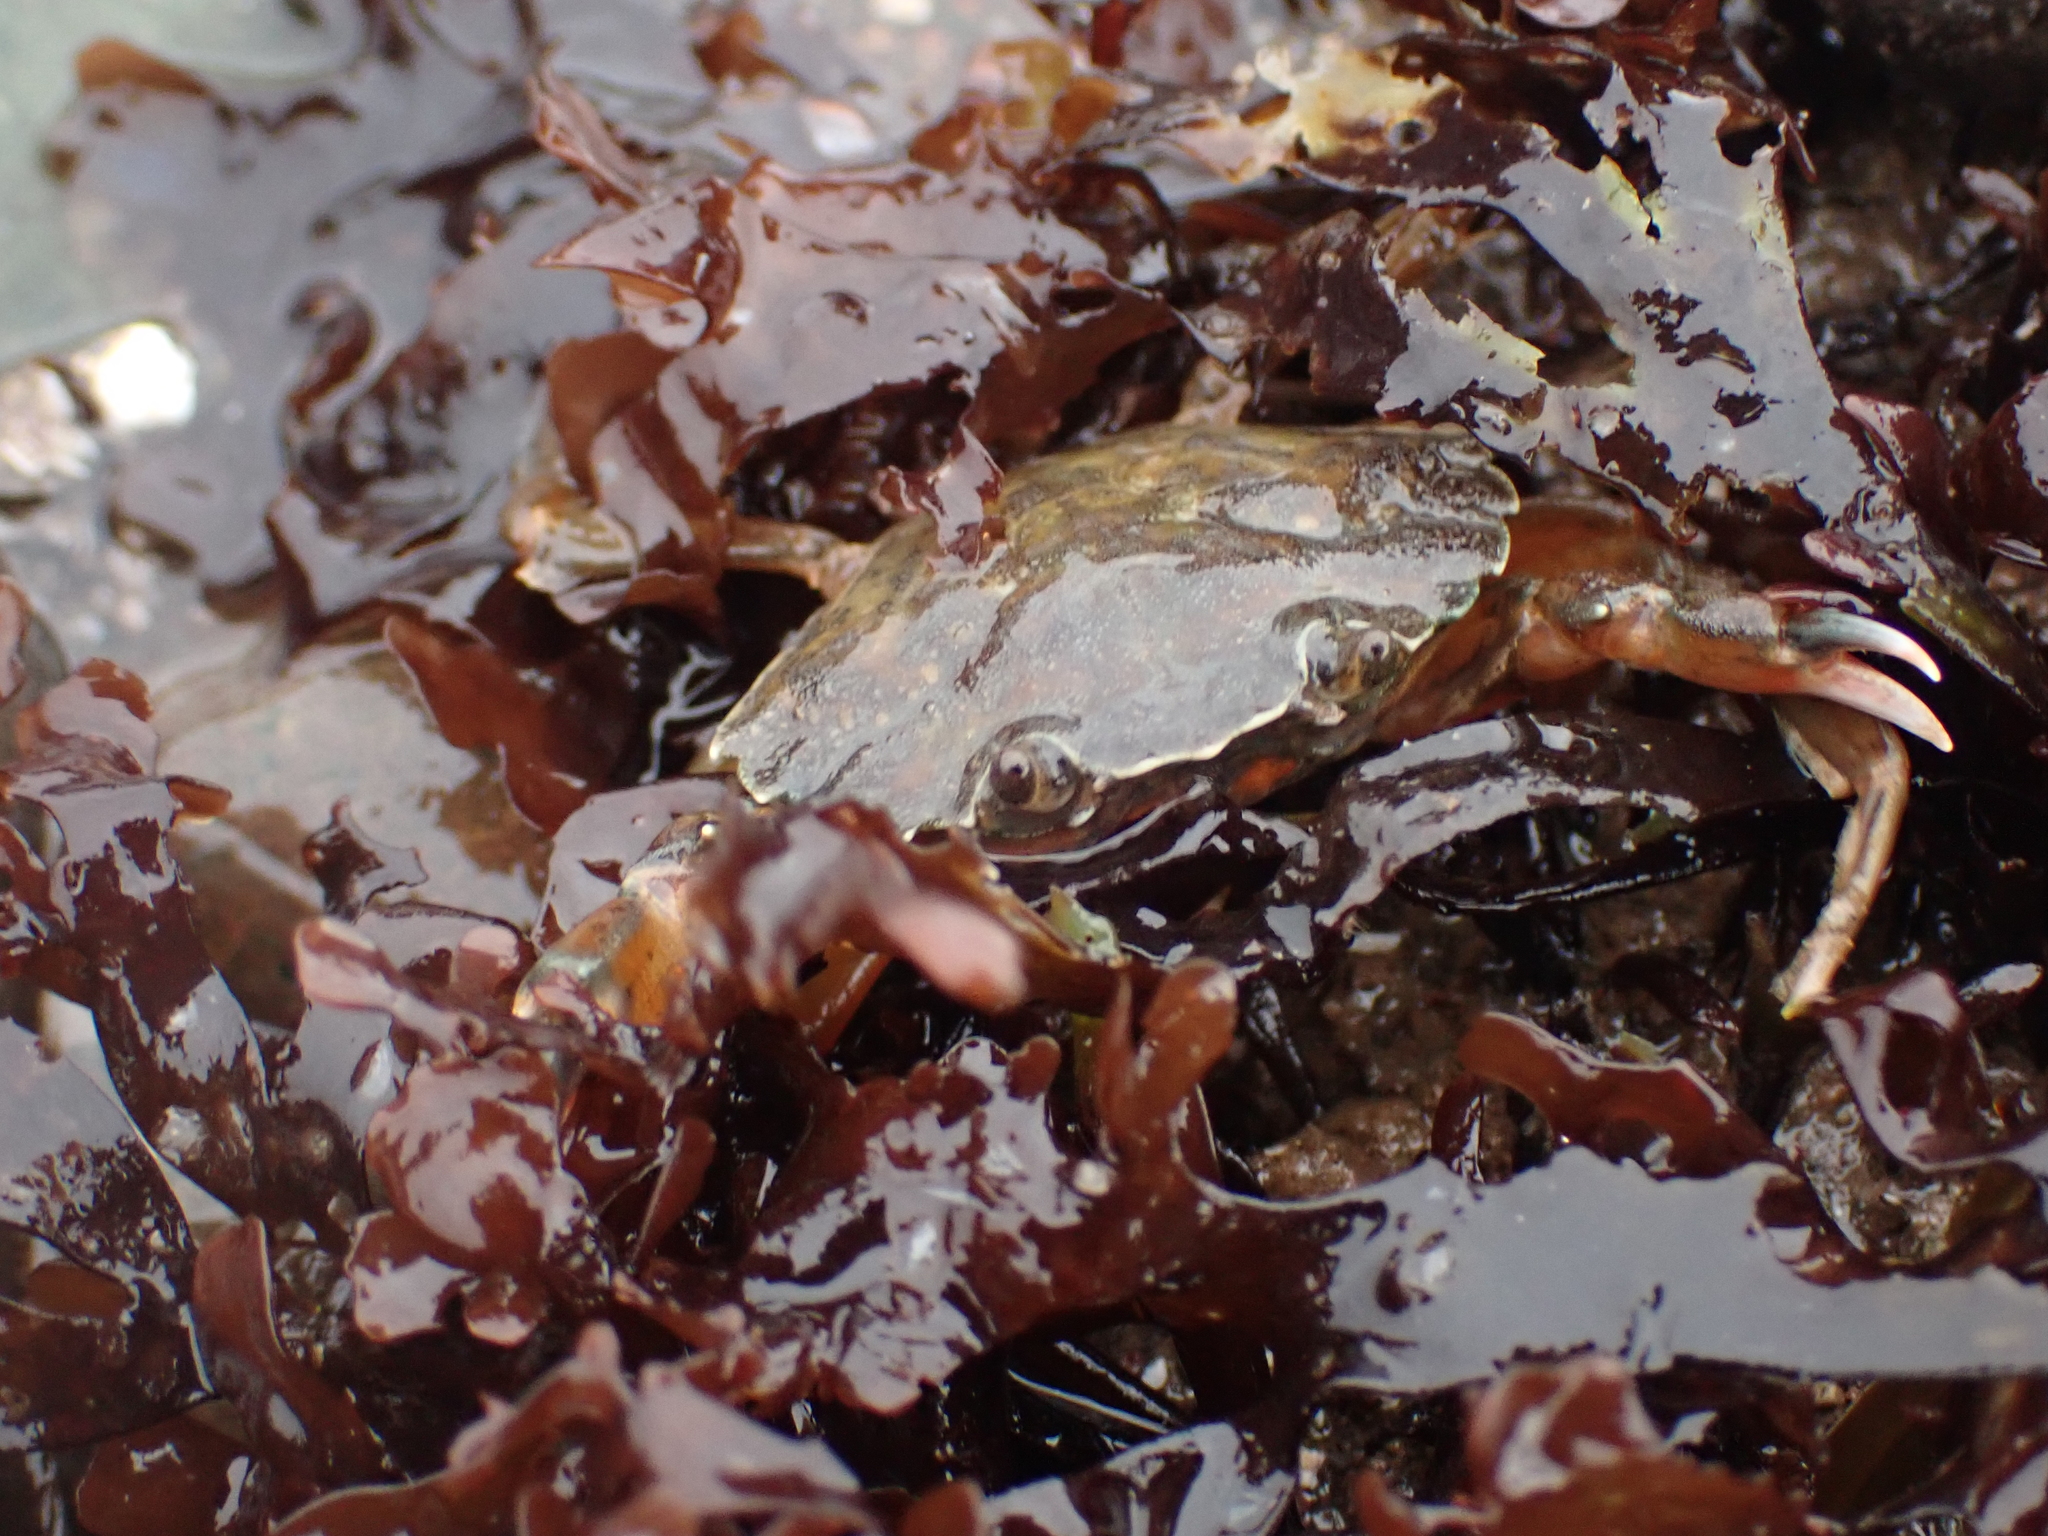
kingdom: Animalia
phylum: Arthropoda
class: Malacostraca
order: Decapoda
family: Carcinidae
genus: Carcinus
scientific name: Carcinus maenas
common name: European green crab
